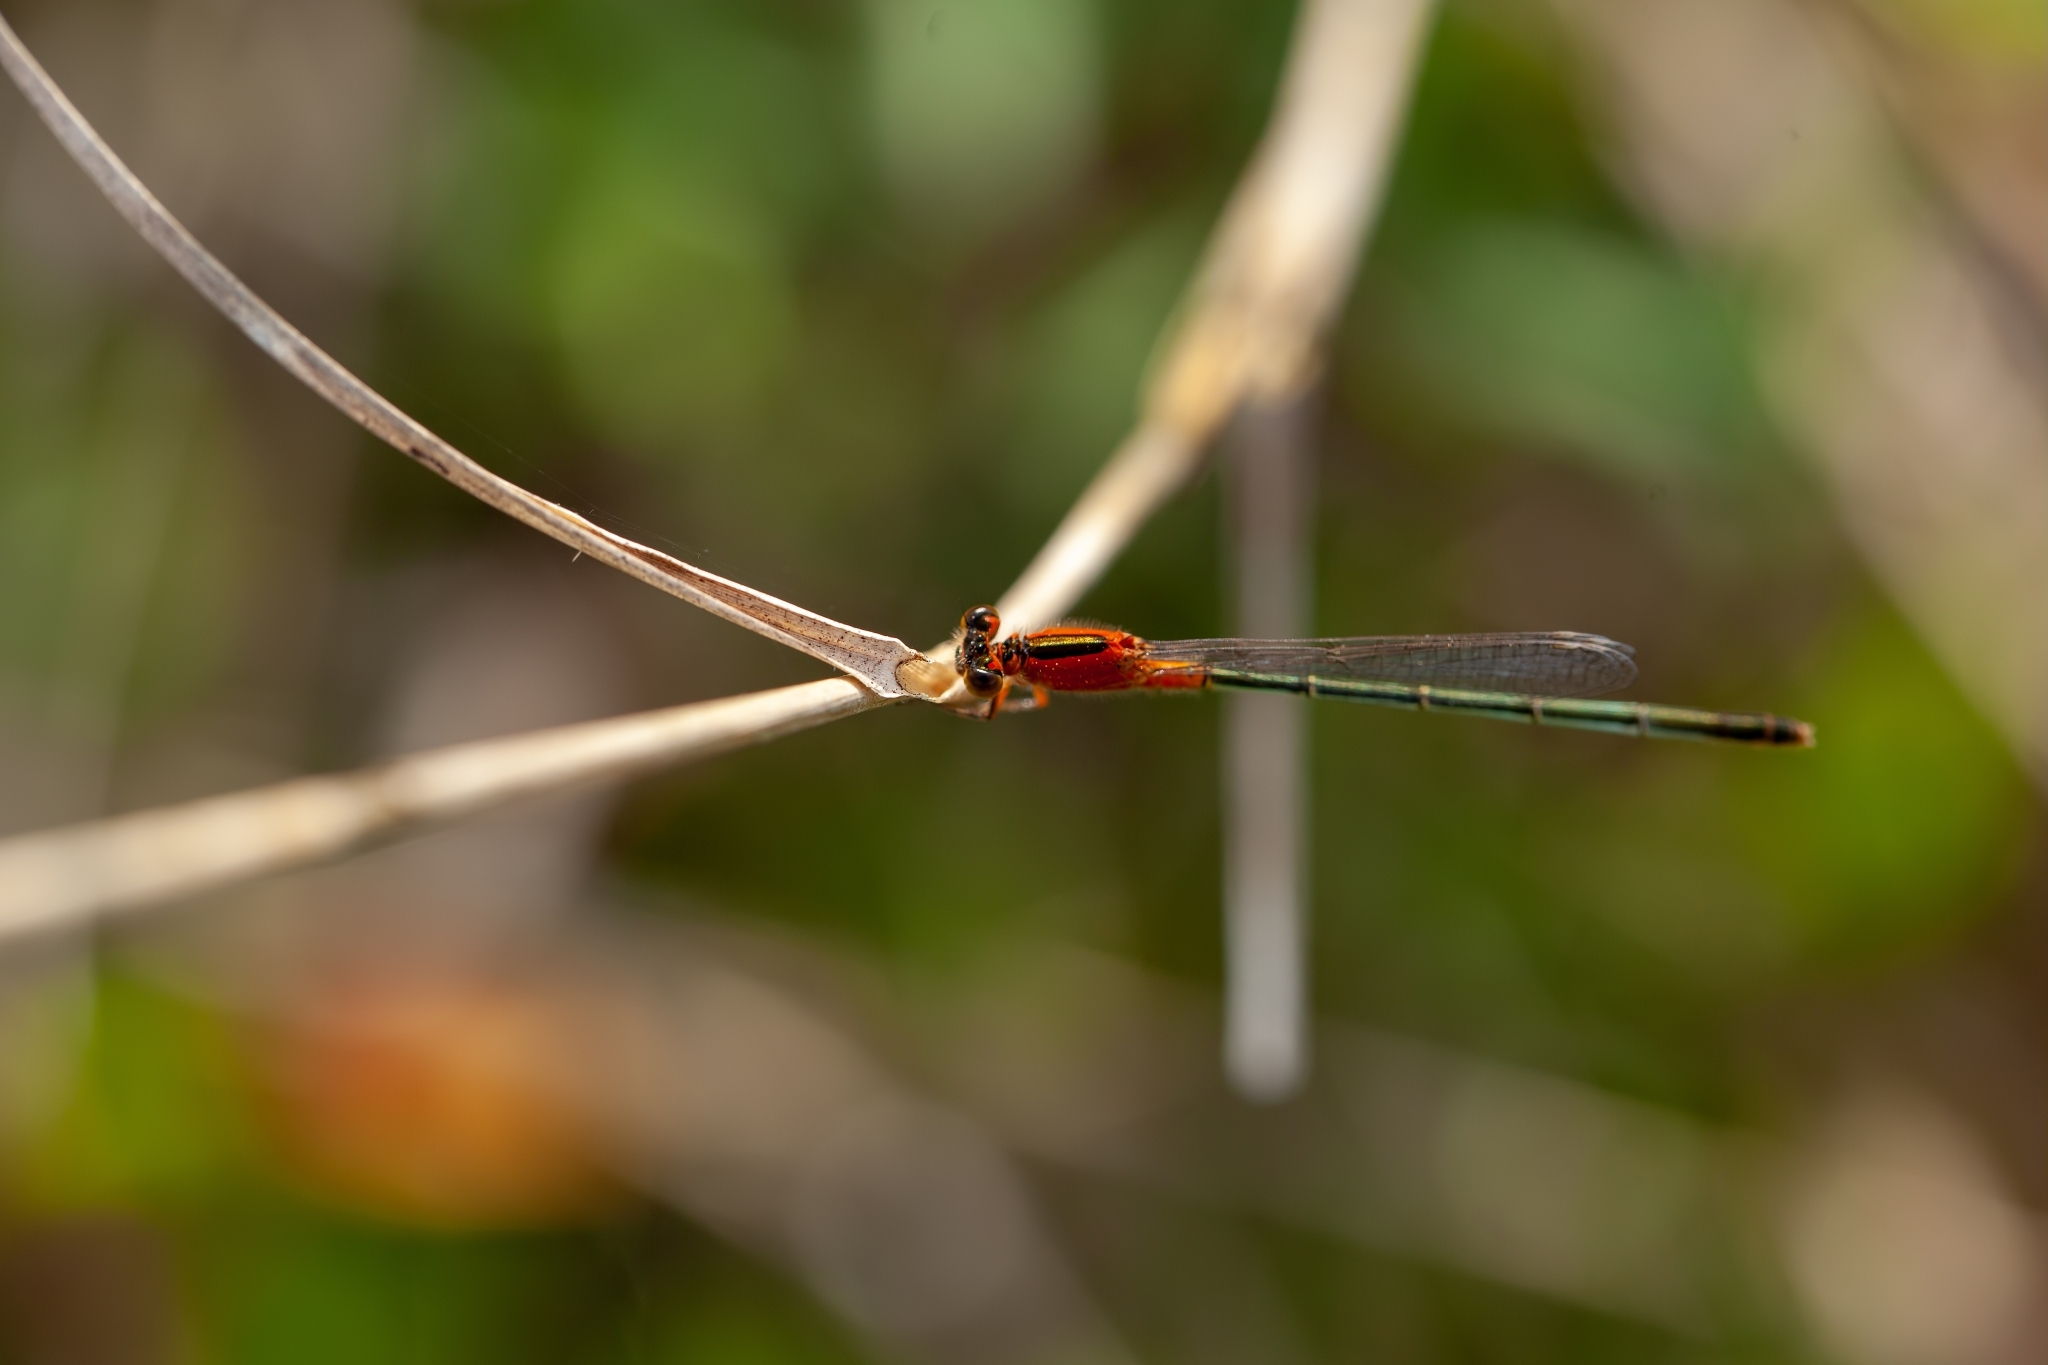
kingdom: Animalia
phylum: Arthropoda
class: Insecta
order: Odonata
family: Coenagrionidae
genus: Ischnura
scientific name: Ischnura ramburii
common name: Rambur's forktail
